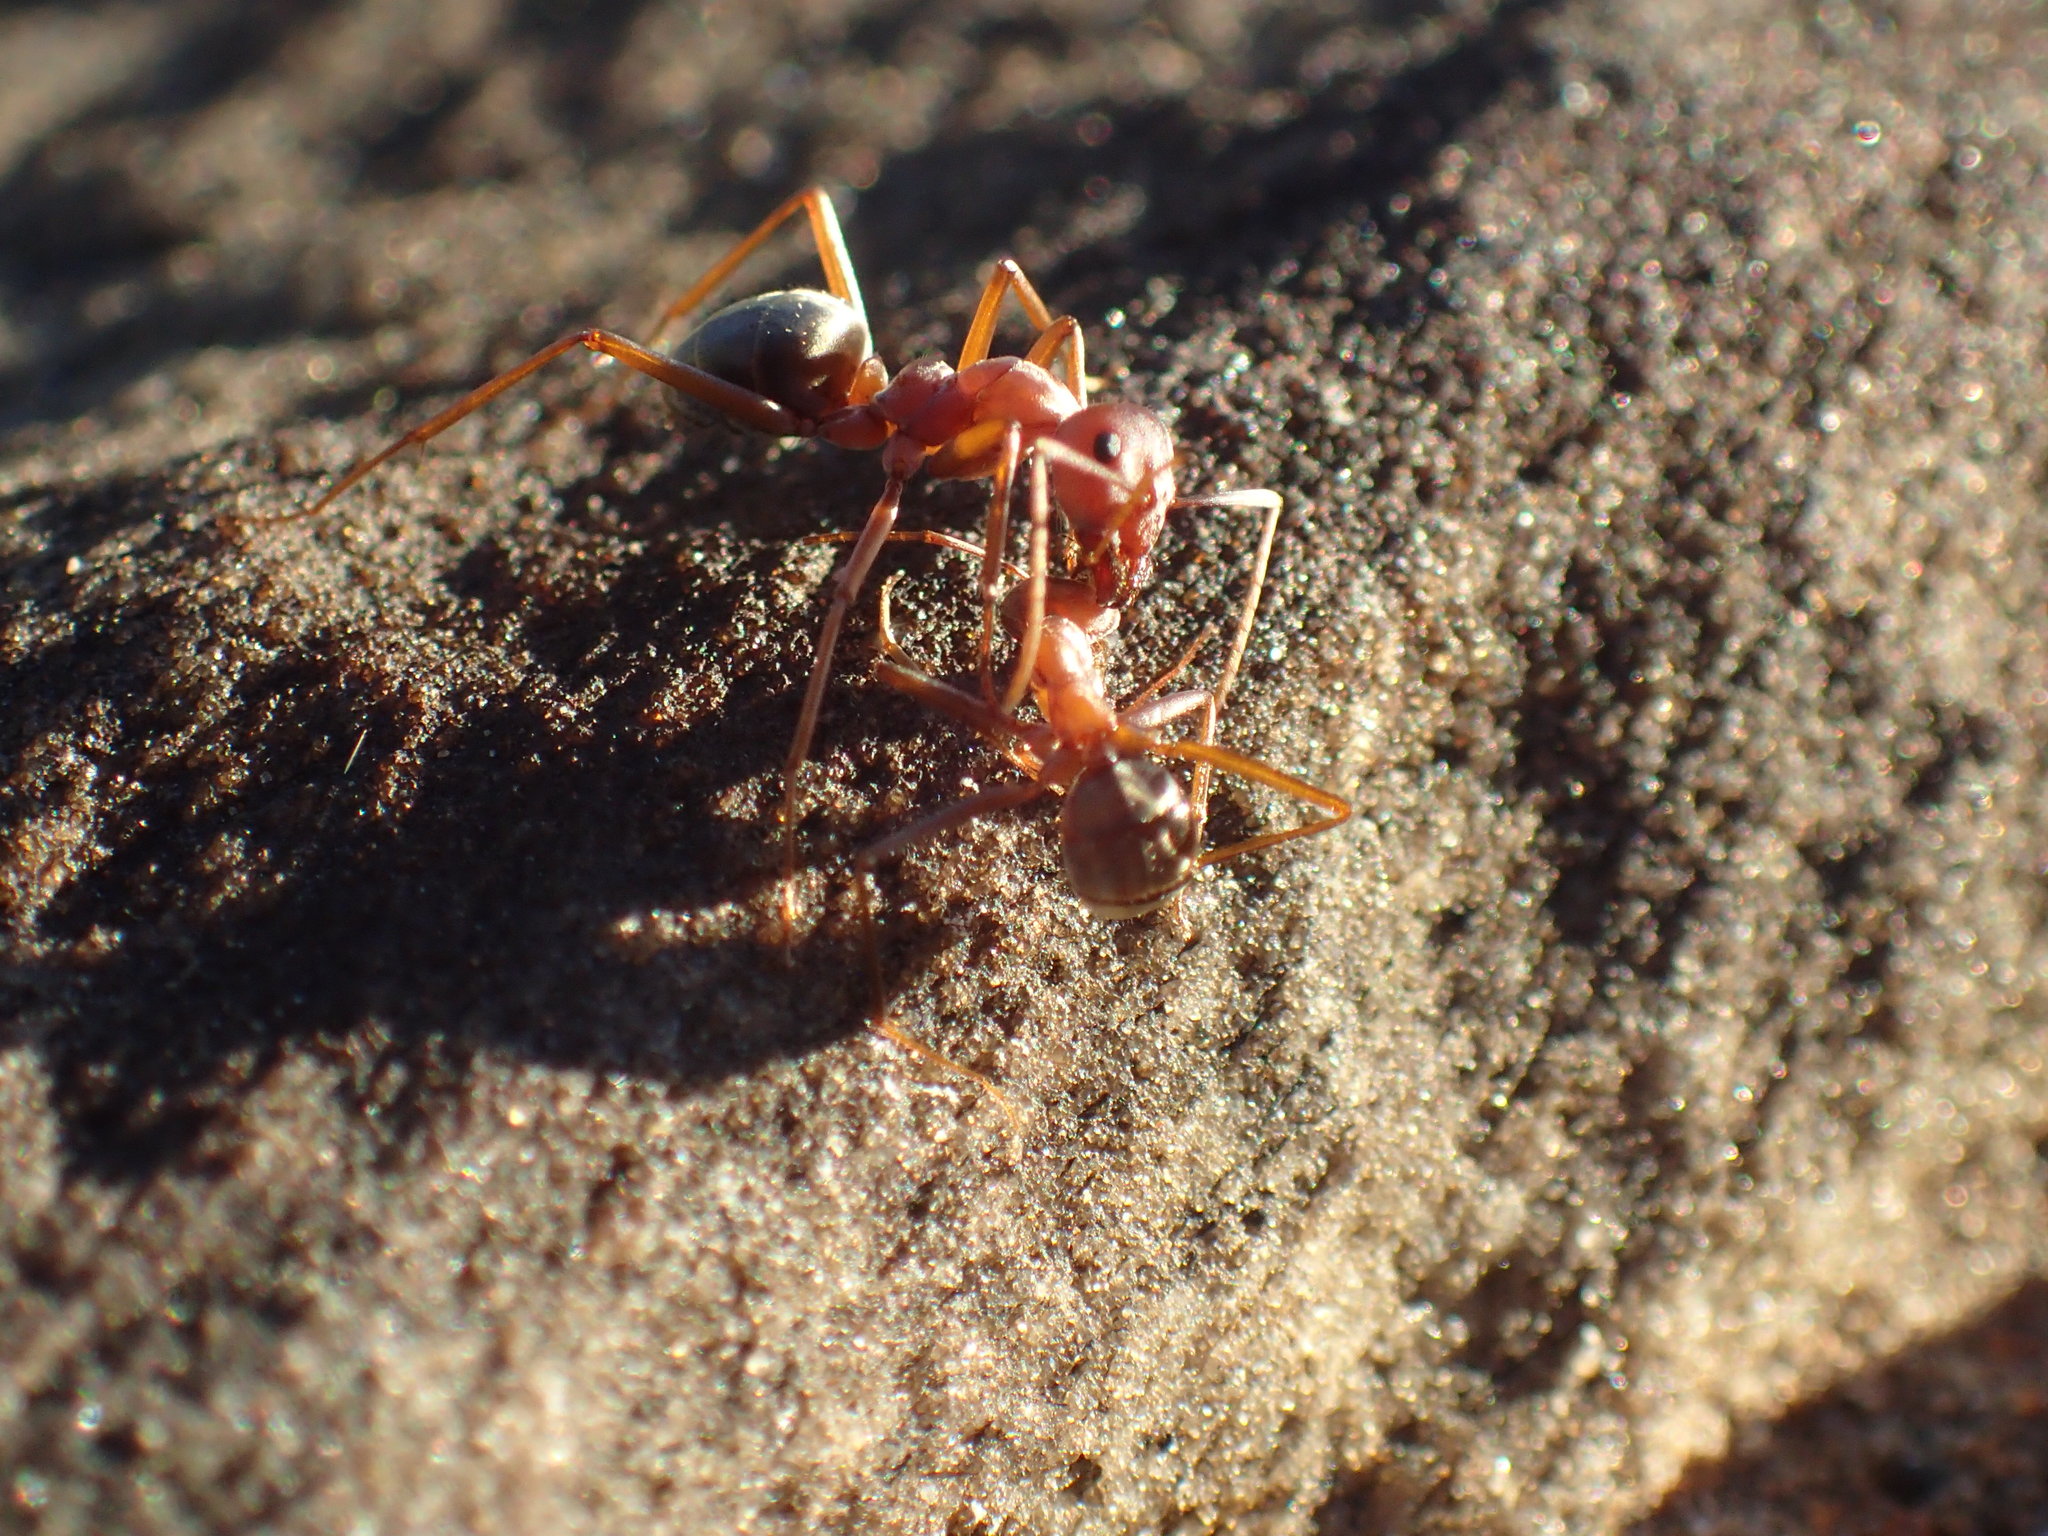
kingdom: Animalia
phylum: Arthropoda
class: Insecta
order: Hymenoptera
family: Formicidae
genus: Anoplolepis
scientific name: Anoplolepis custodiens
